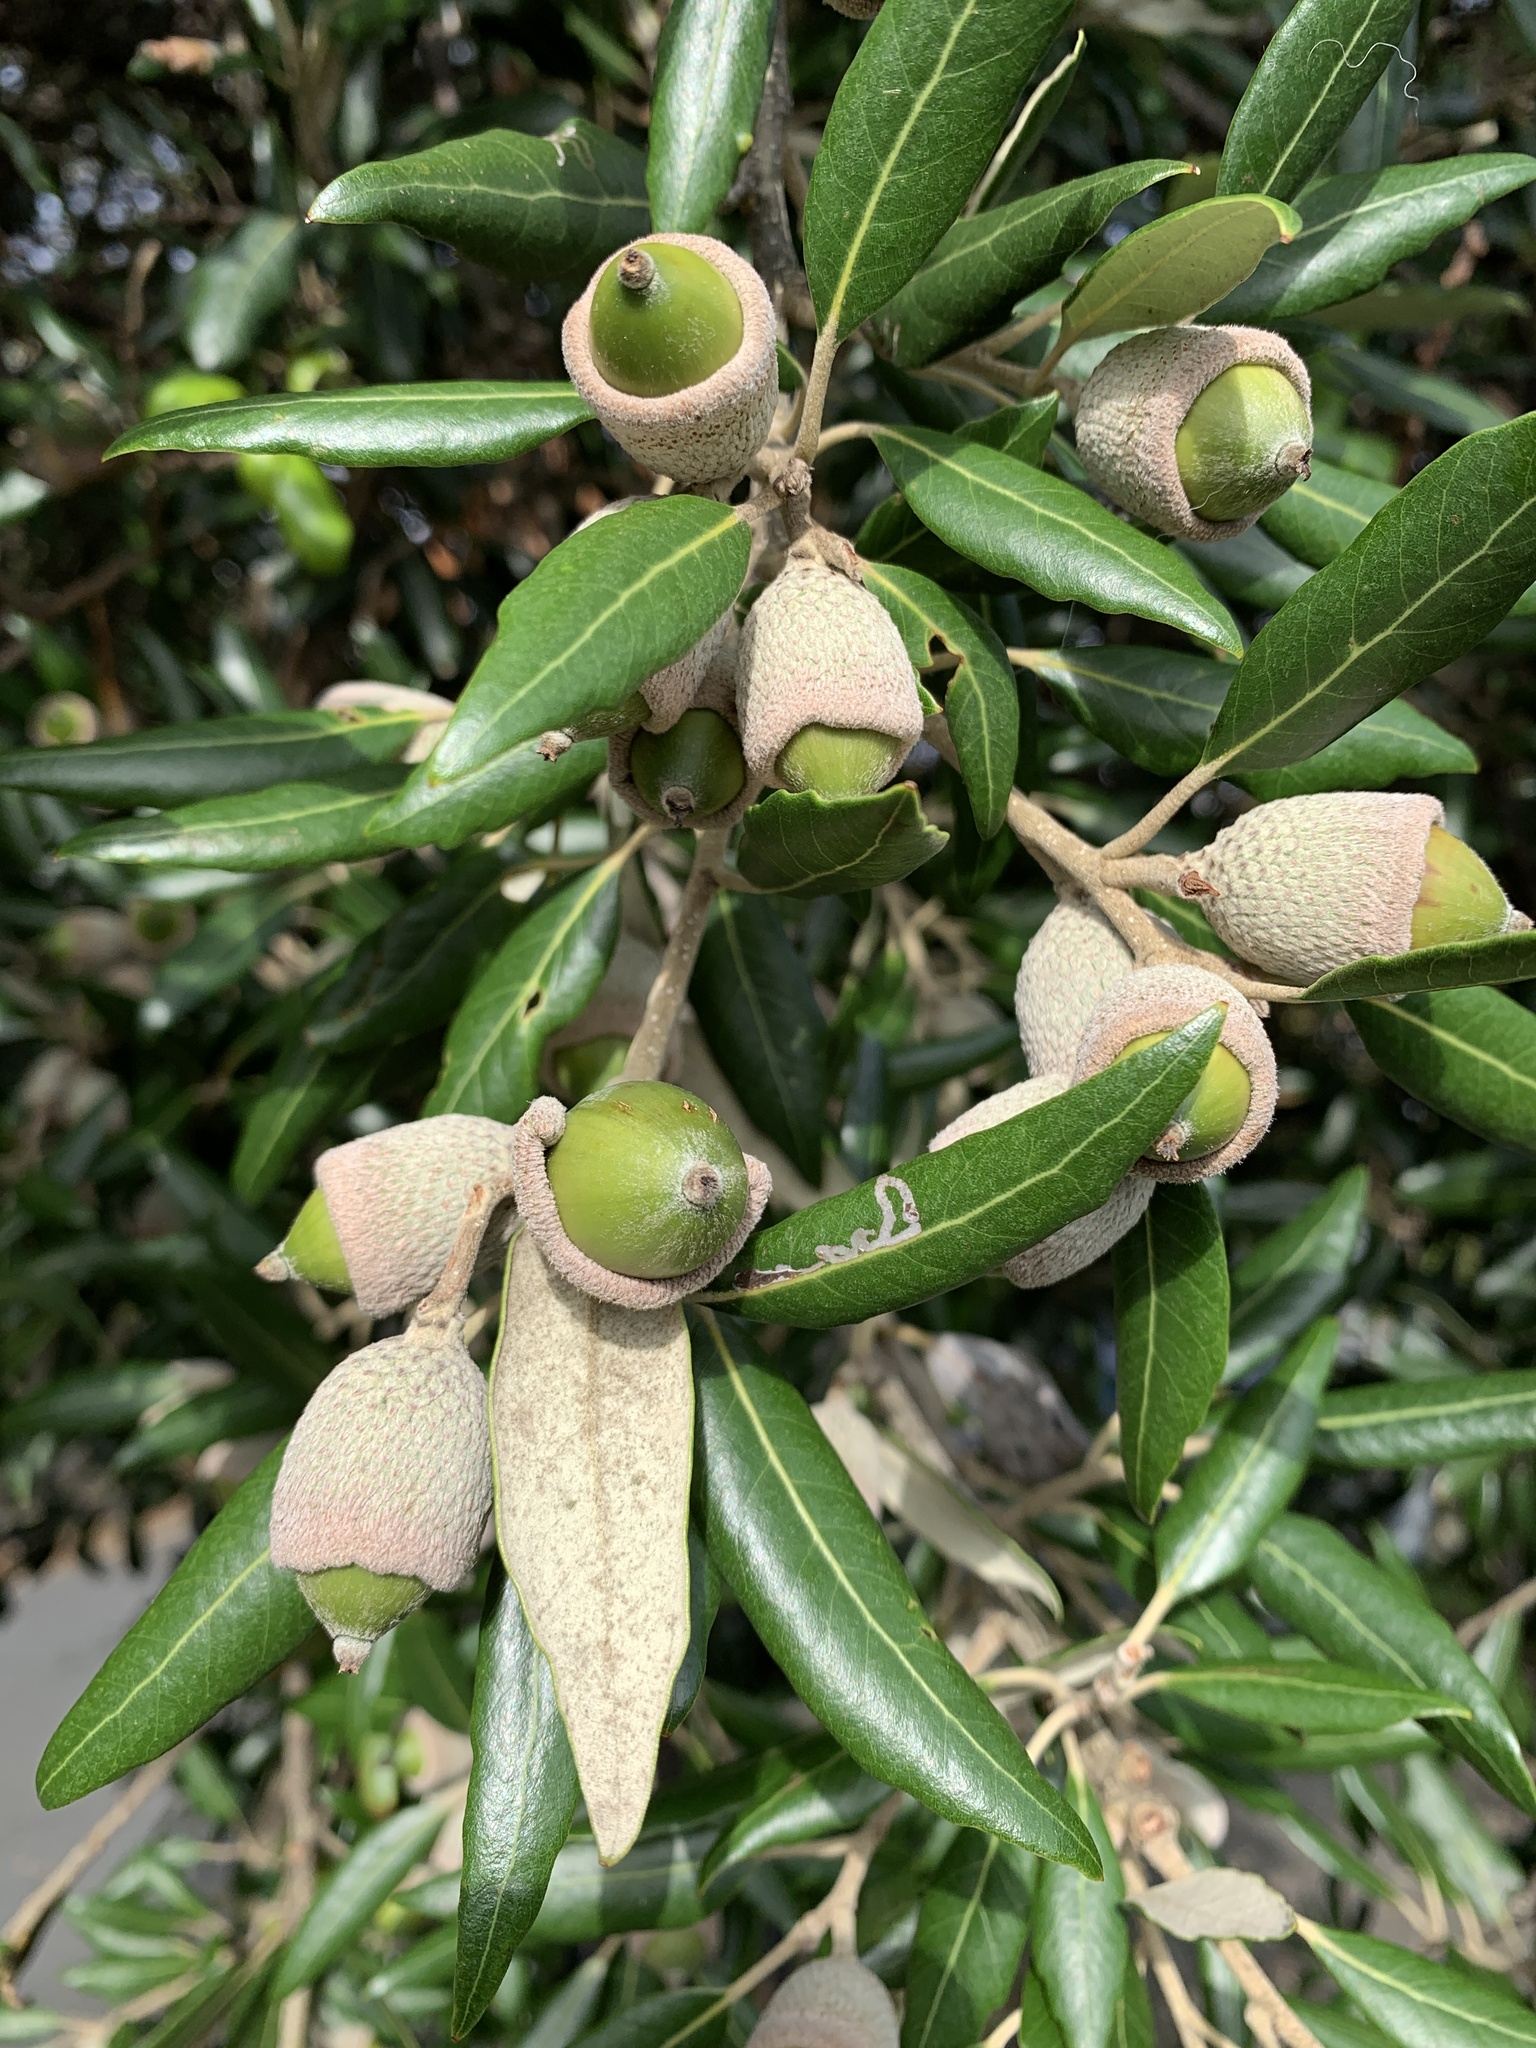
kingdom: Plantae
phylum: Tracheophyta
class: Magnoliopsida
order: Fagales
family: Fagaceae
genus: Quercus
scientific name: Quercus ilex
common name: Evergreen oak
